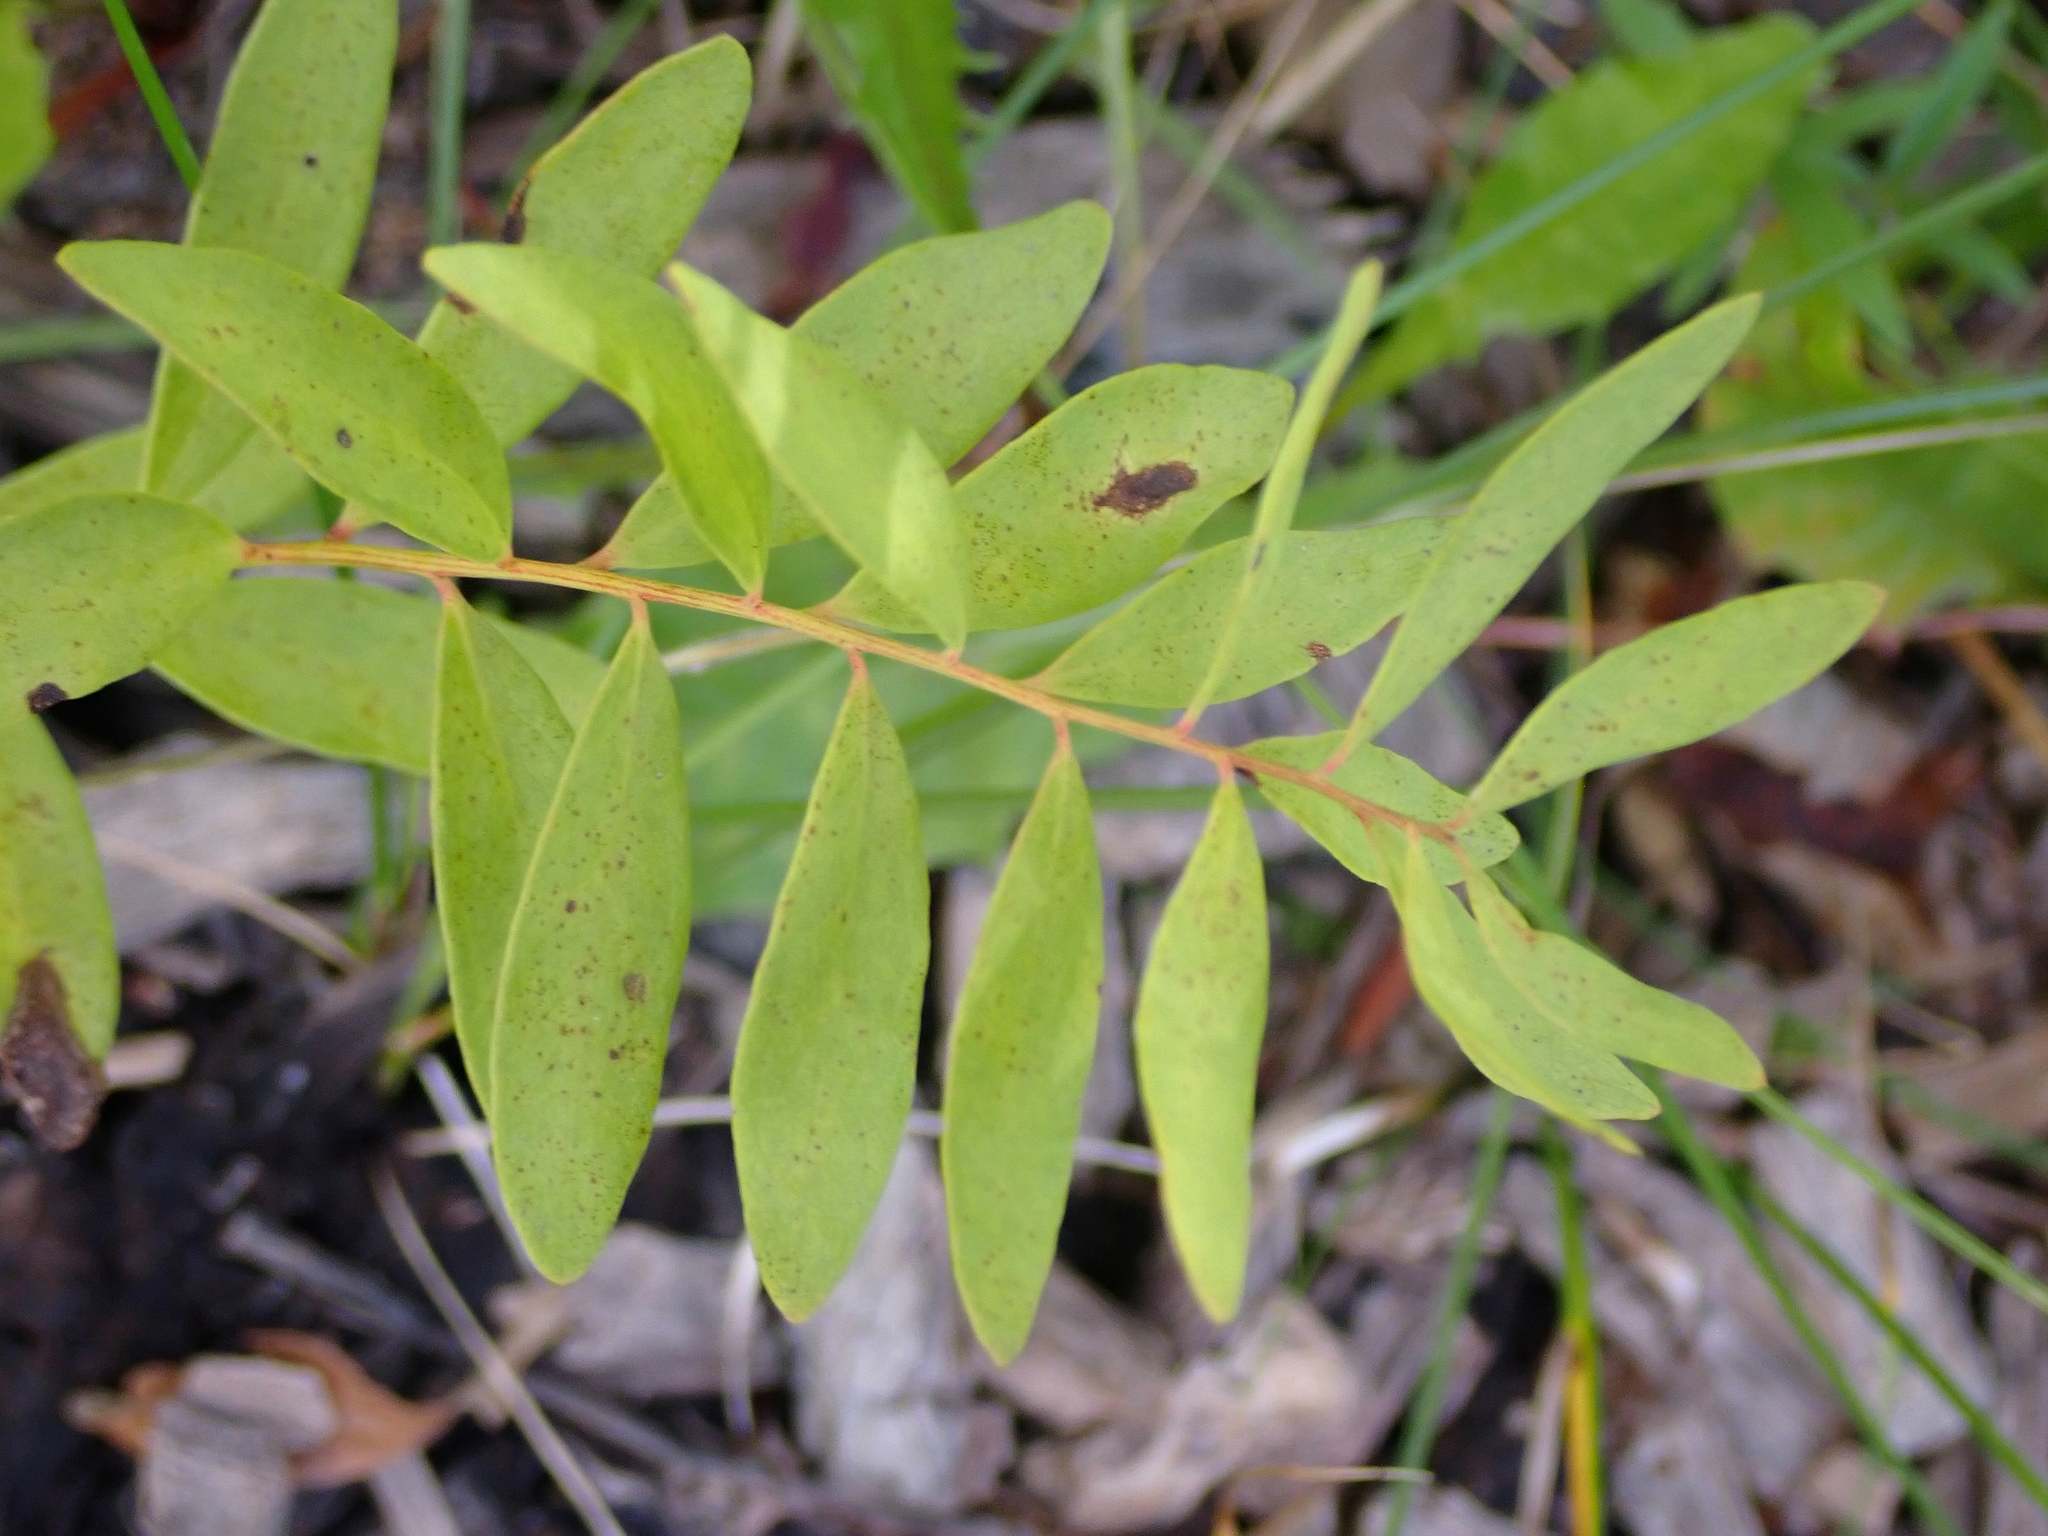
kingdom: Plantae
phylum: Tracheophyta
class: Magnoliopsida
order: Santalales
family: Comandraceae
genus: Comandra
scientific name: Comandra umbellata
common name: Bastard toadflax
